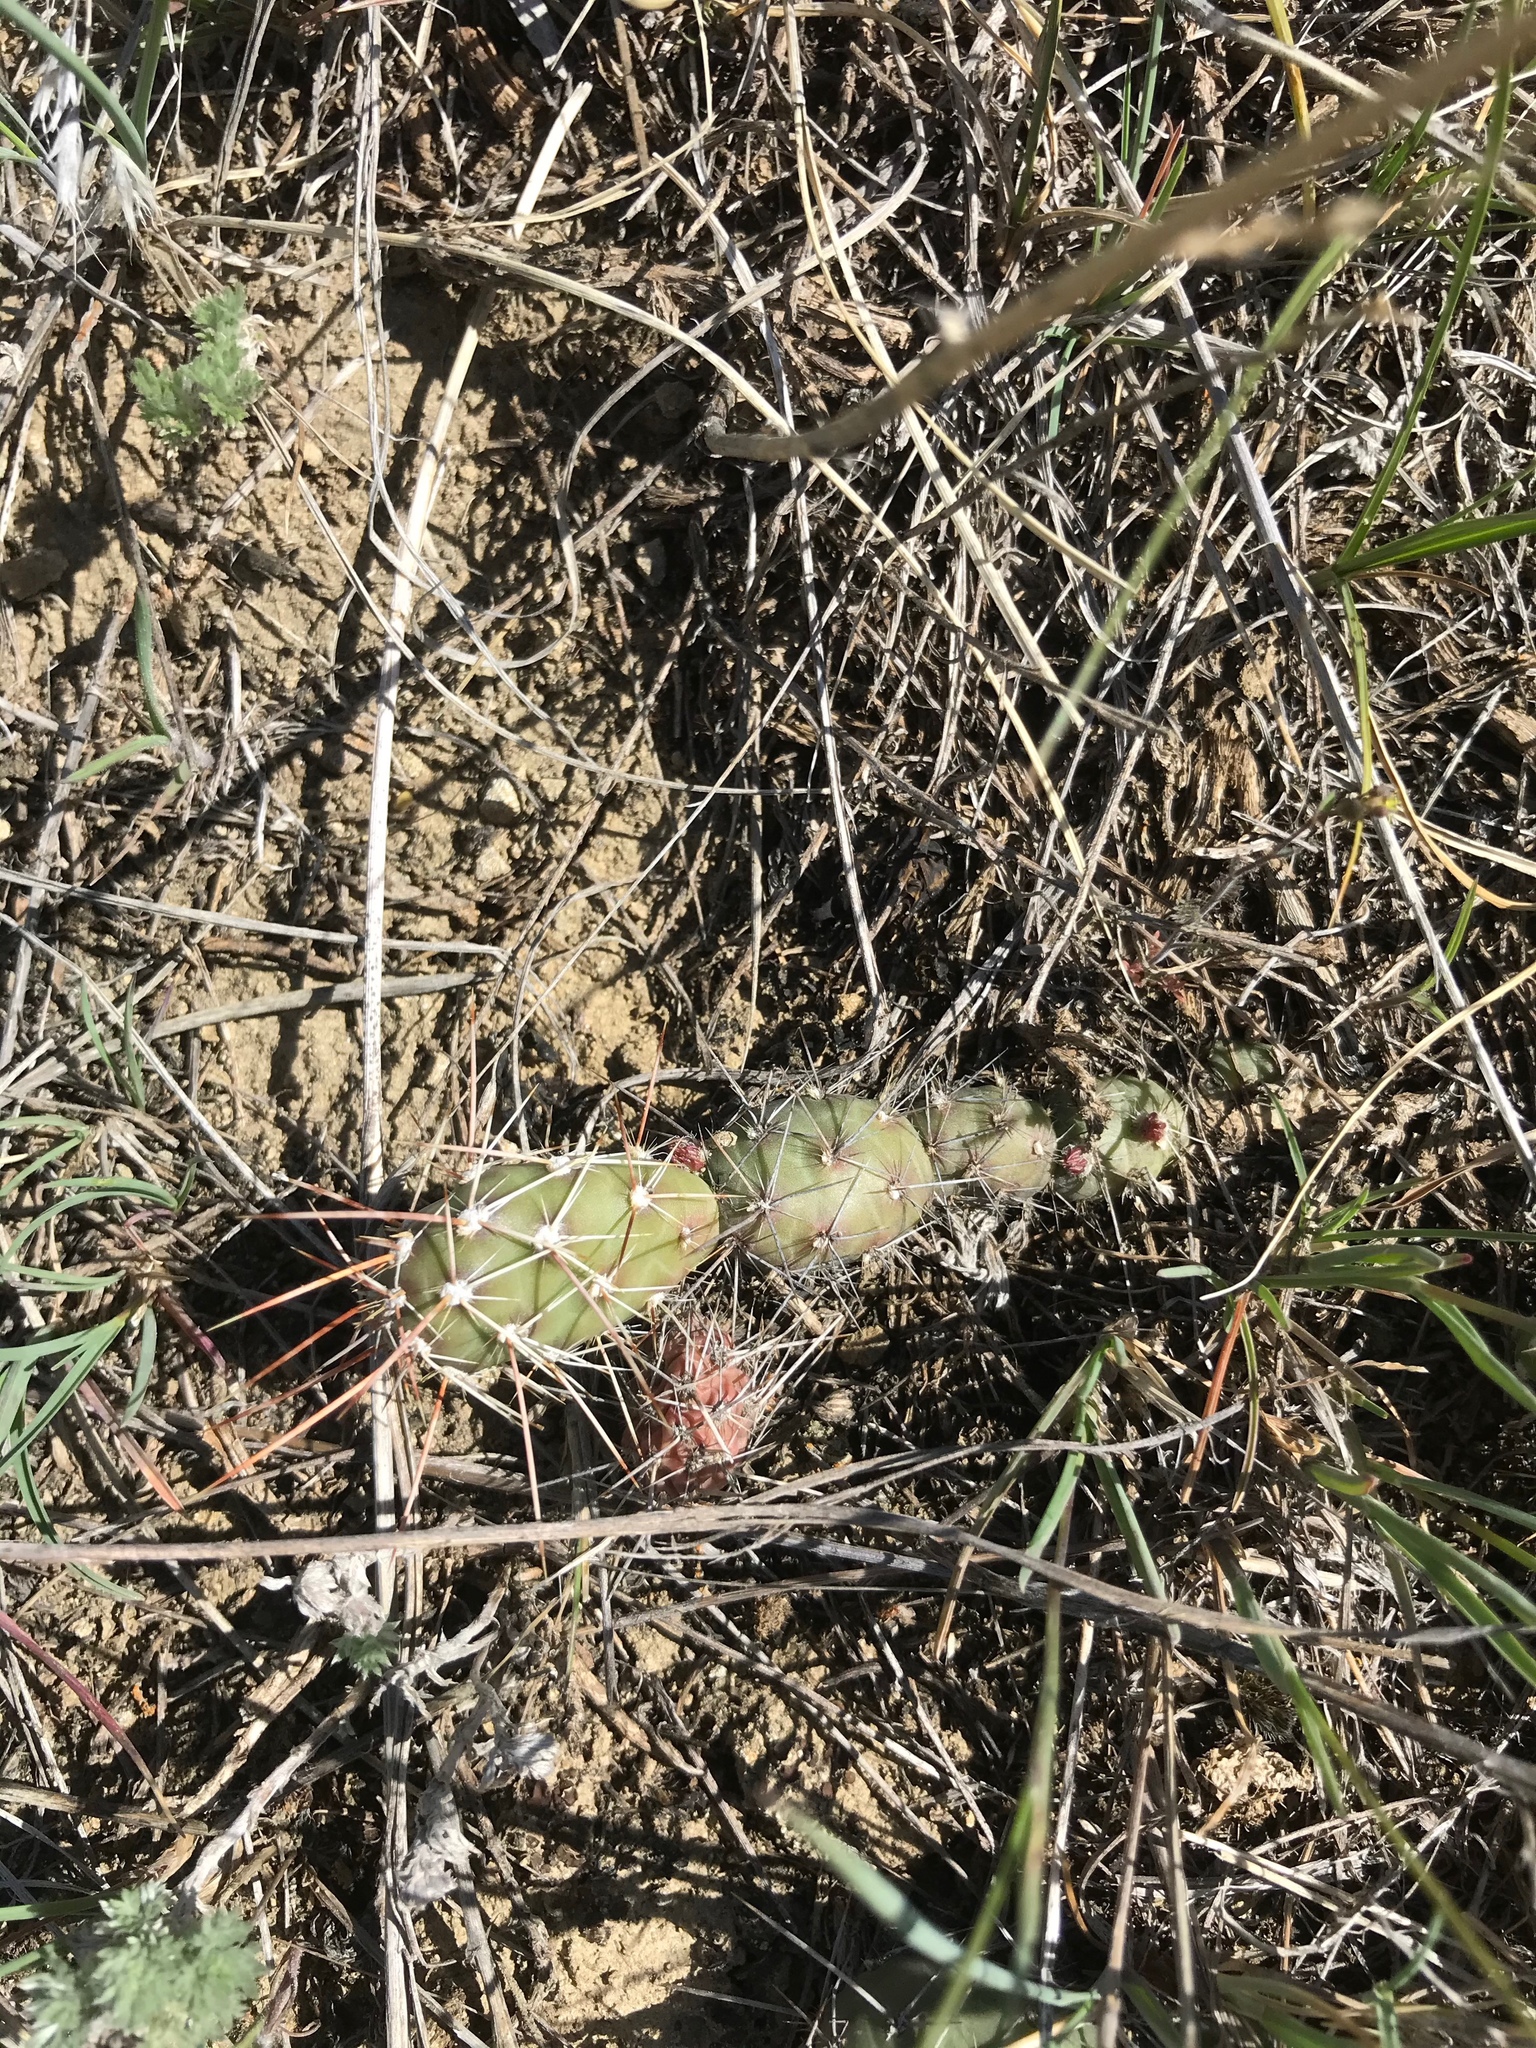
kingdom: Plantae
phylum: Tracheophyta
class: Magnoliopsida
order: Caryophyllales
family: Cactaceae
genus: Opuntia
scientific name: Opuntia fragilis
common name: Brittle cactus
